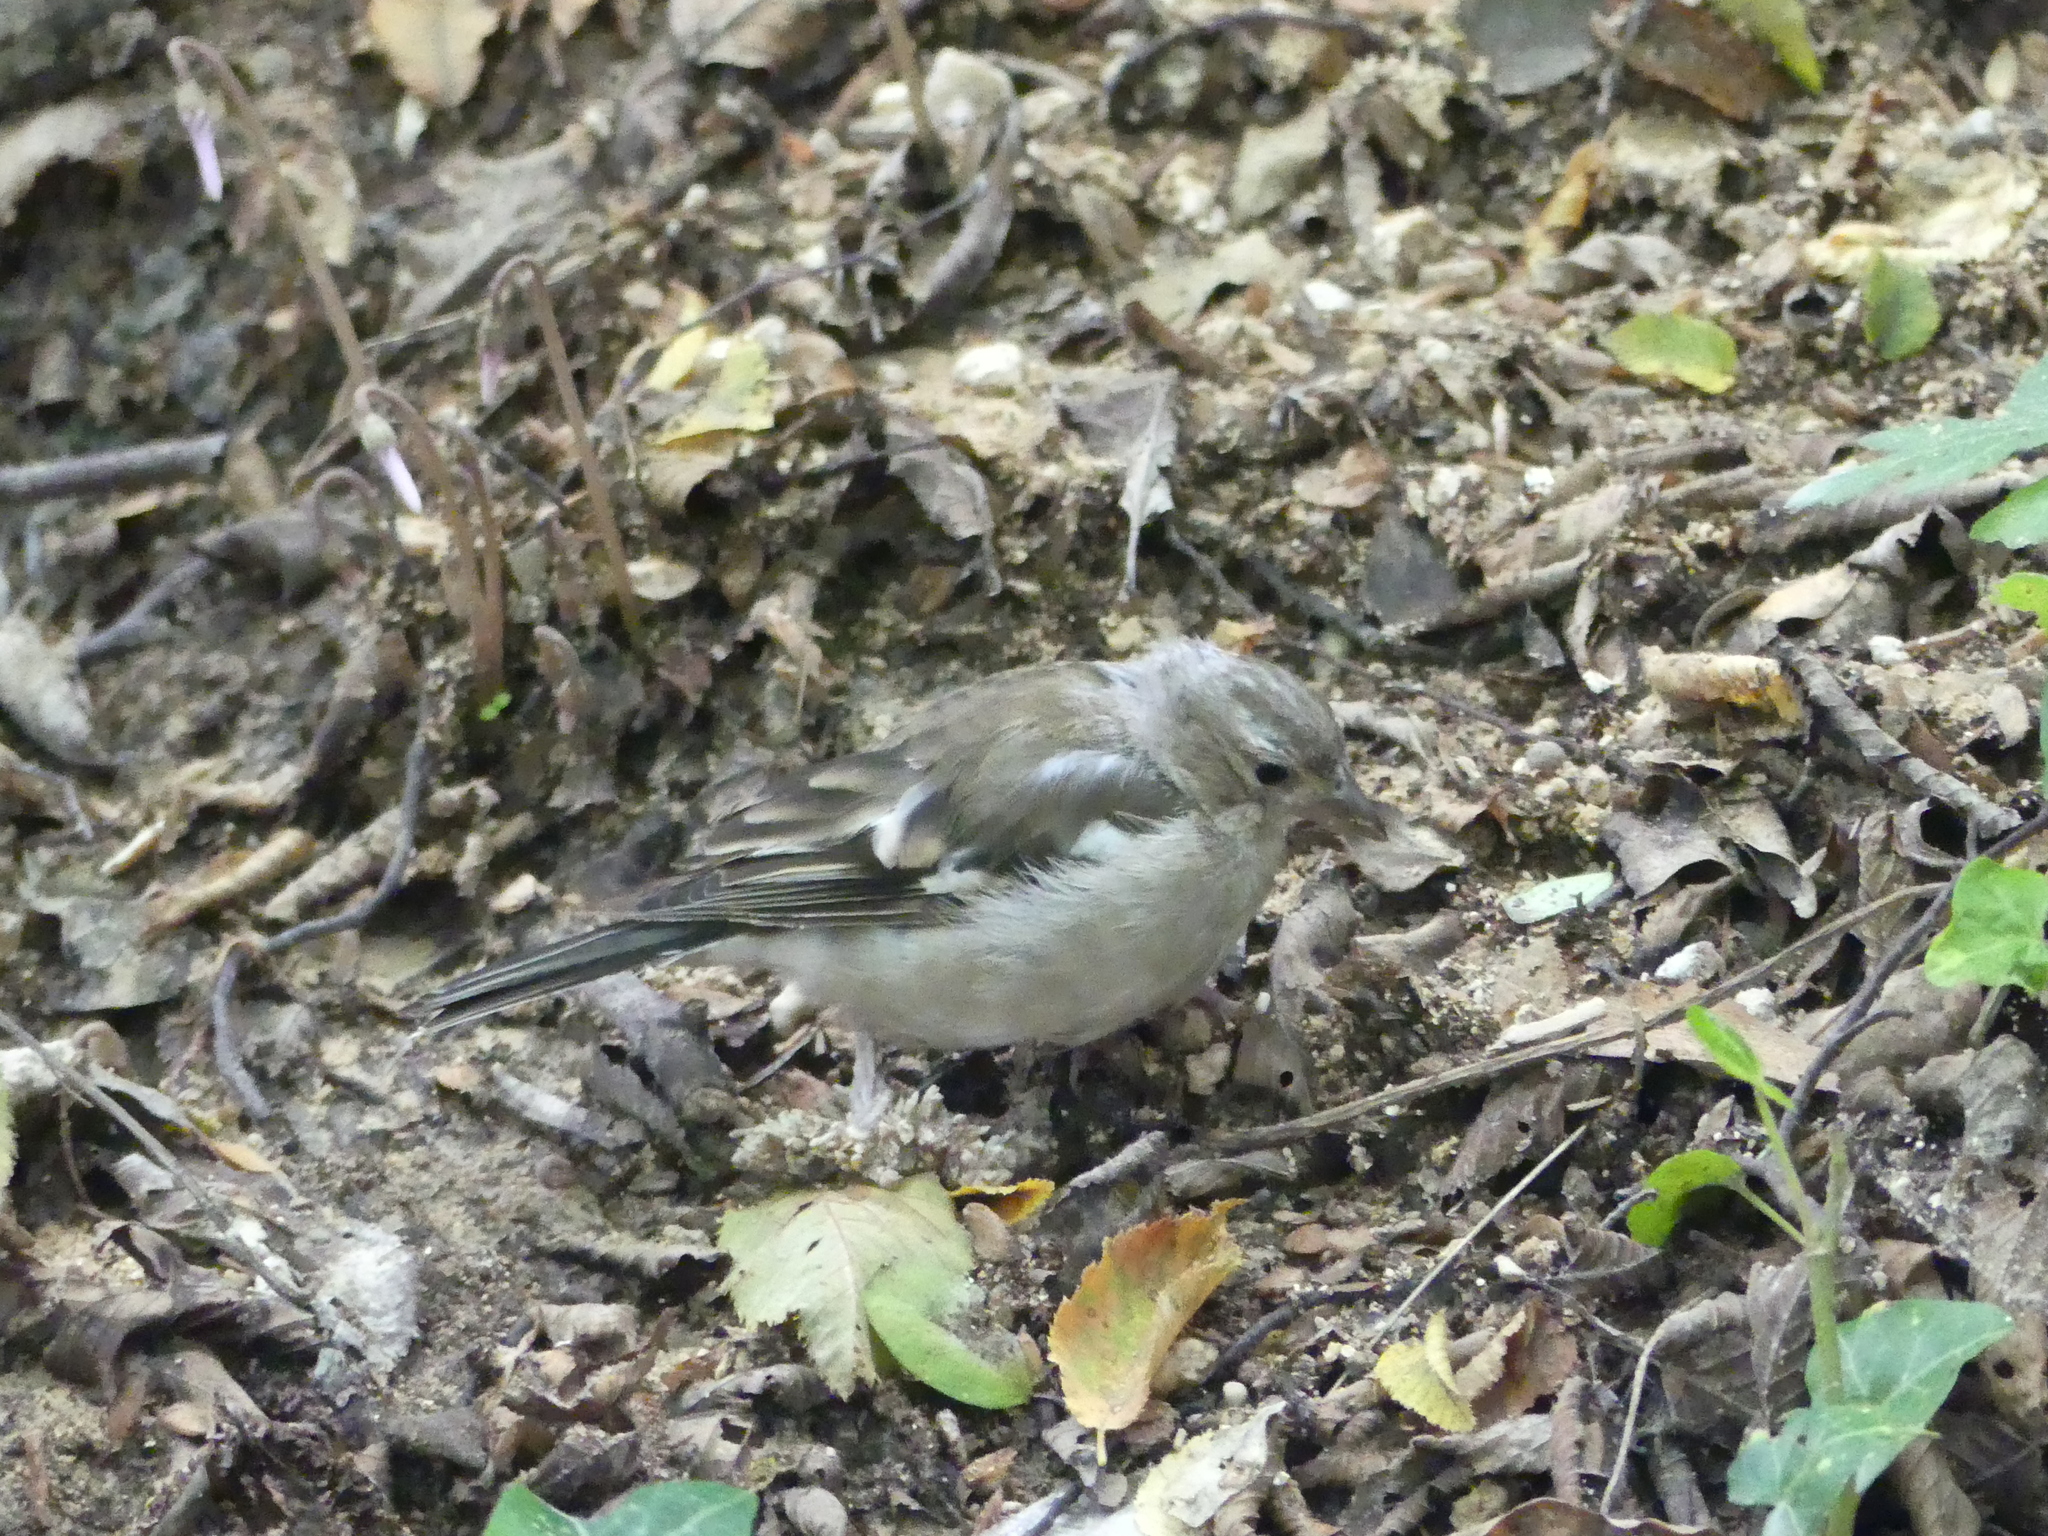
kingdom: Animalia
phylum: Chordata
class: Aves
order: Passeriformes
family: Fringillidae
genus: Fringilla
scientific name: Fringilla coelebs
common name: Common chaffinch
